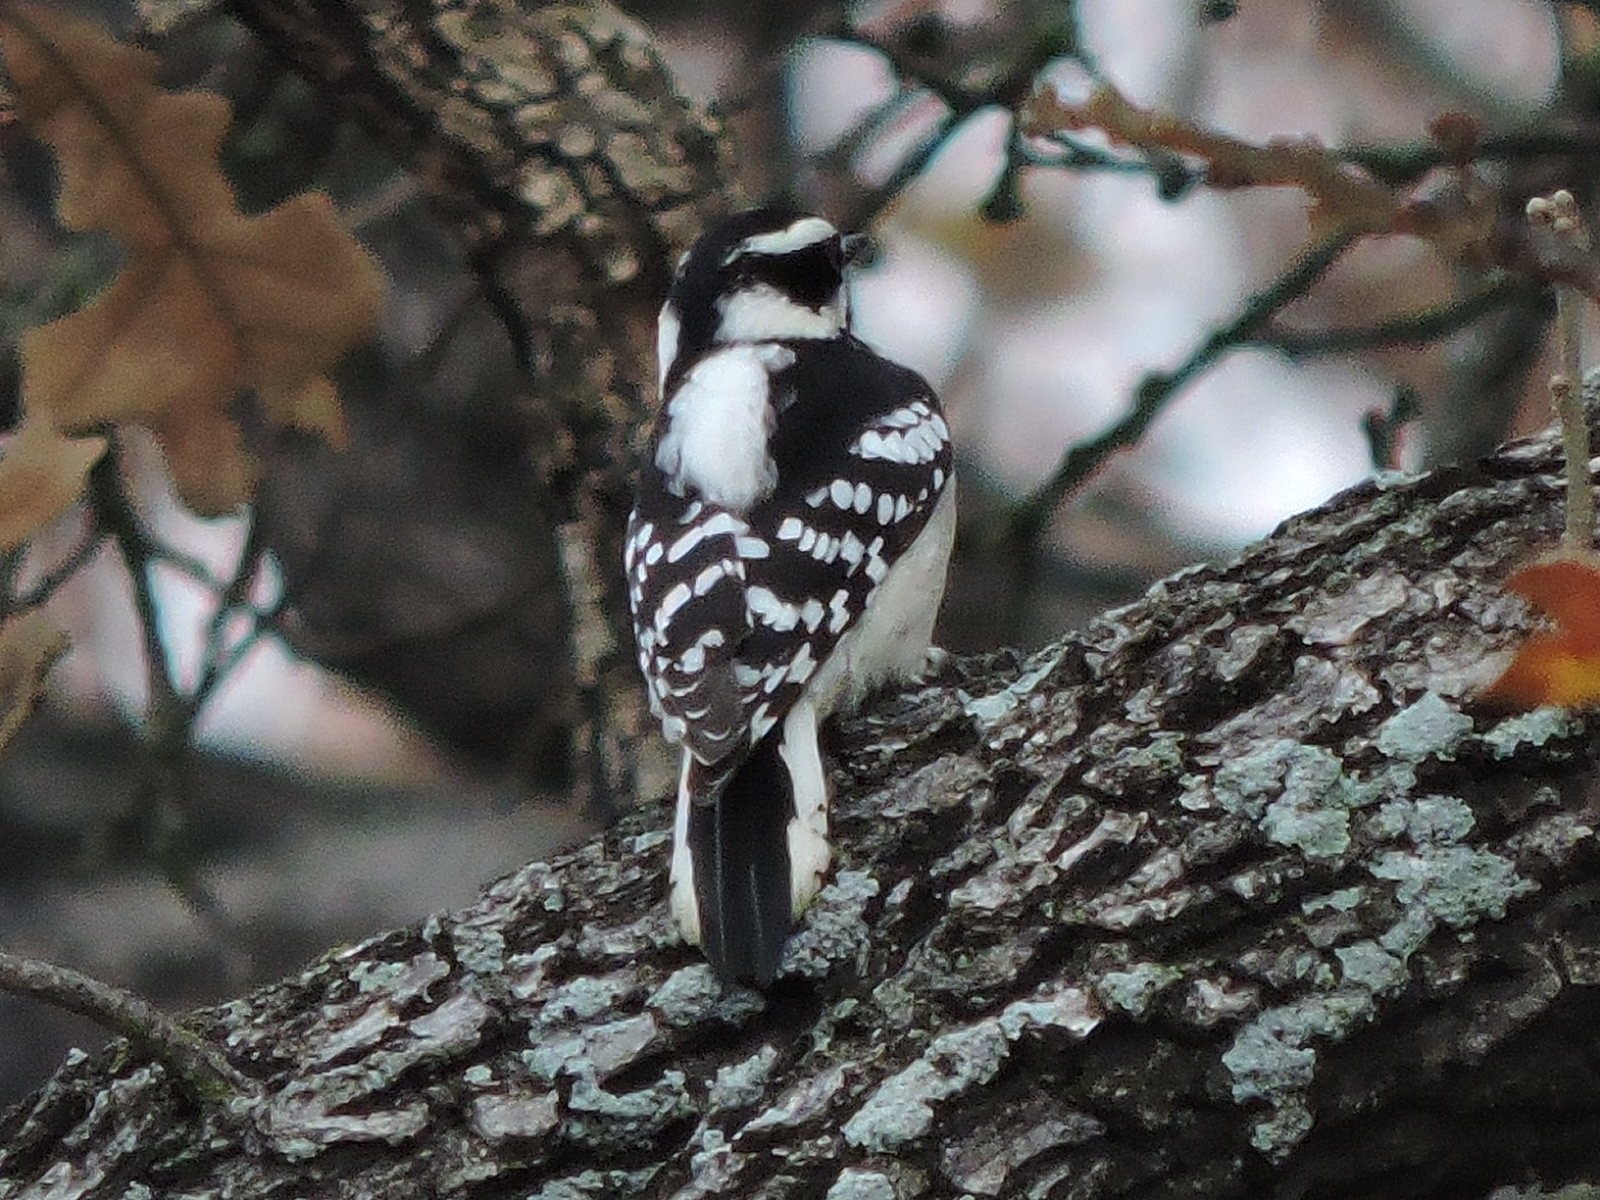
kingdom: Animalia
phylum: Chordata
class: Aves
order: Piciformes
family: Picidae
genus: Dryobates
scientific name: Dryobates pubescens
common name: Downy woodpecker
